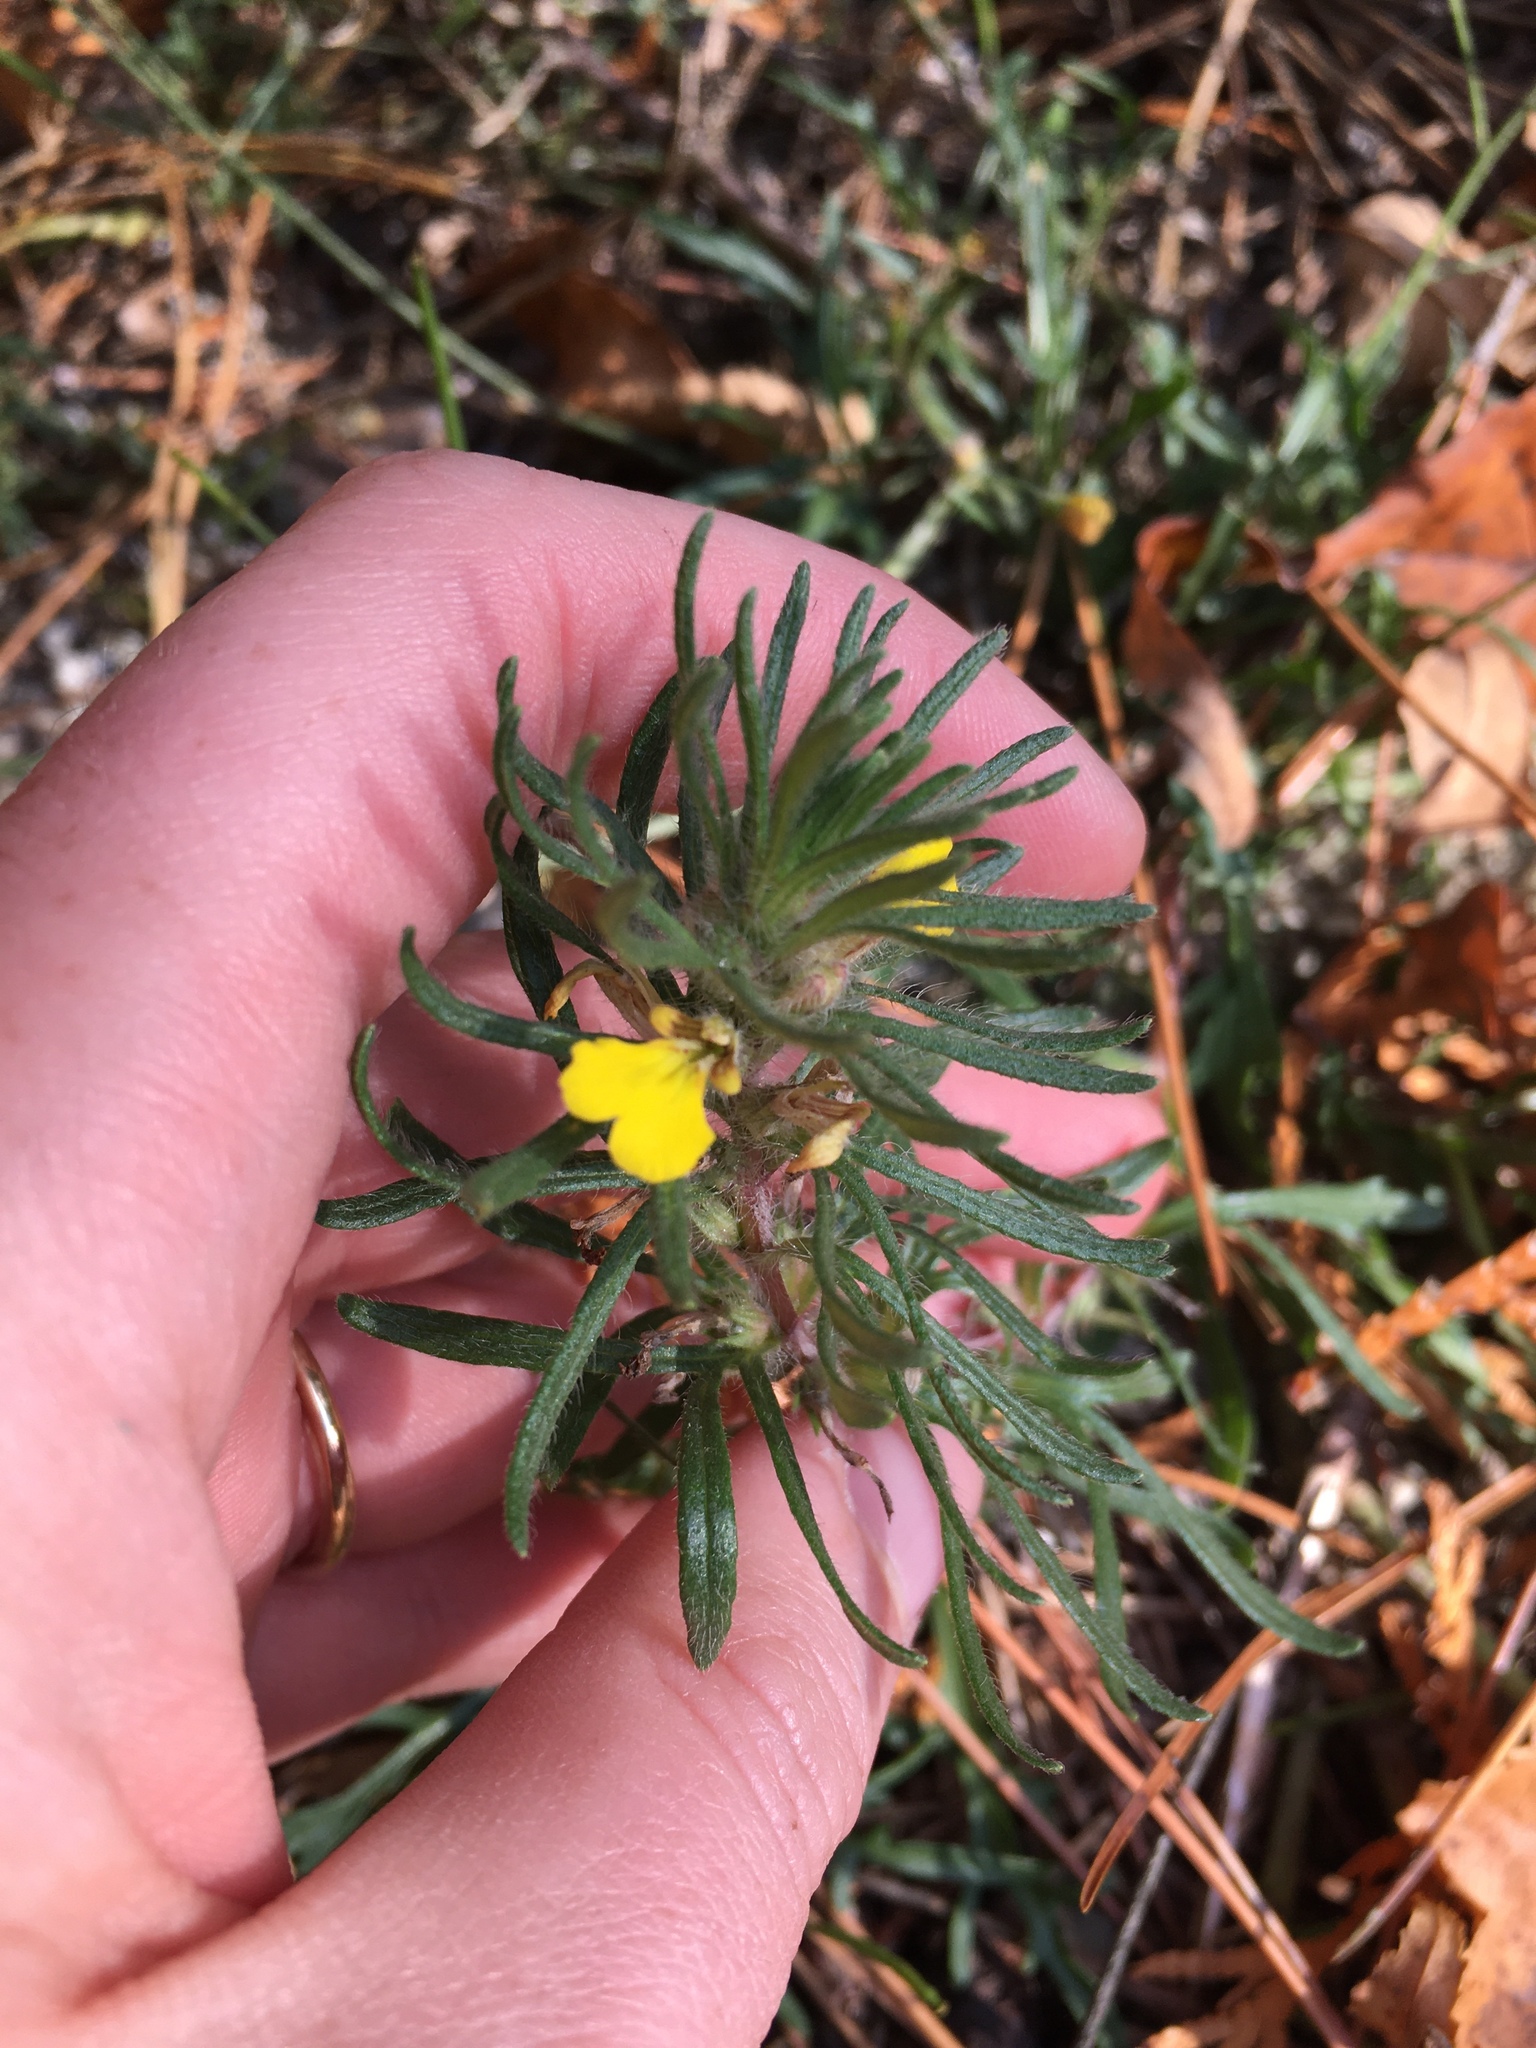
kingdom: Plantae
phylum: Tracheophyta
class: Magnoliopsida
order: Lamiales
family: Lamiaceae
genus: Ajuga
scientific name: Ajuga chamaepitys
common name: Ground-pine
